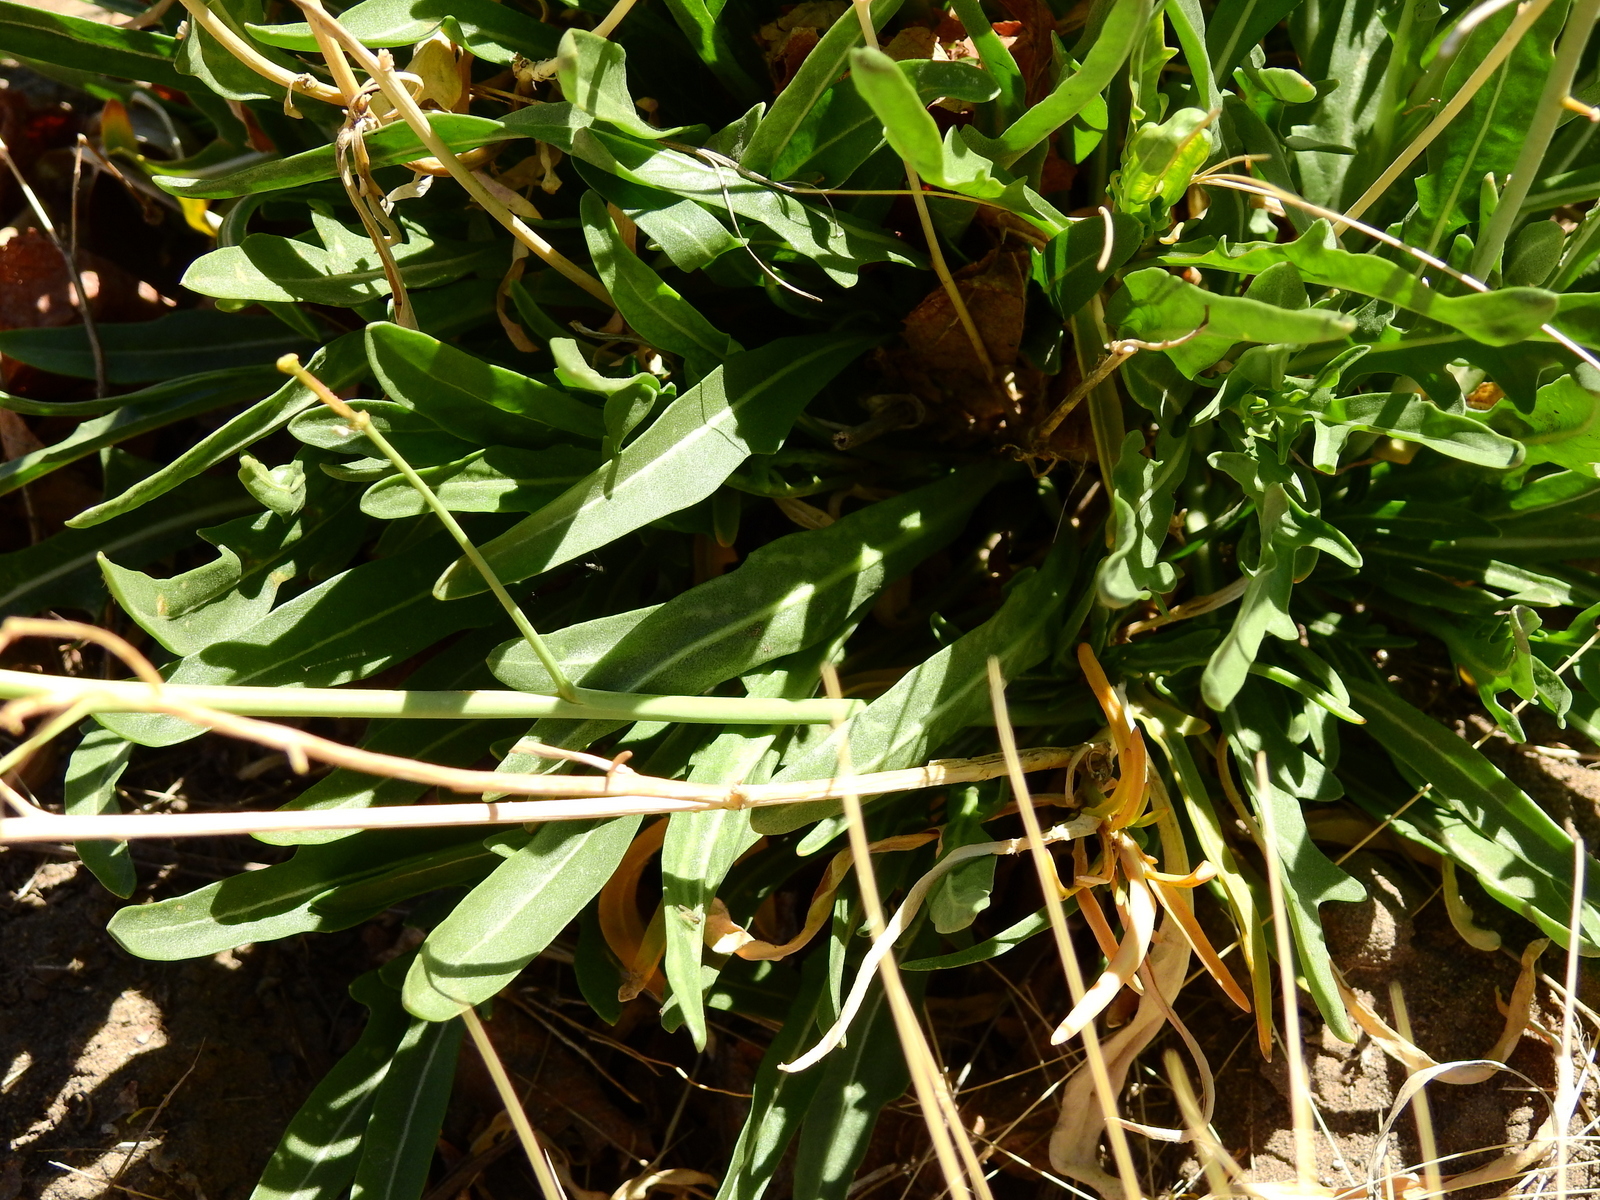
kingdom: Plantae
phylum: Tracheophyta
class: Magnoliopsida
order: Brassicales
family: Brassicaceae
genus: Diplotaxis
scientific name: Diplotaxis tenuifolia
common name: Perennial wall-rocket
